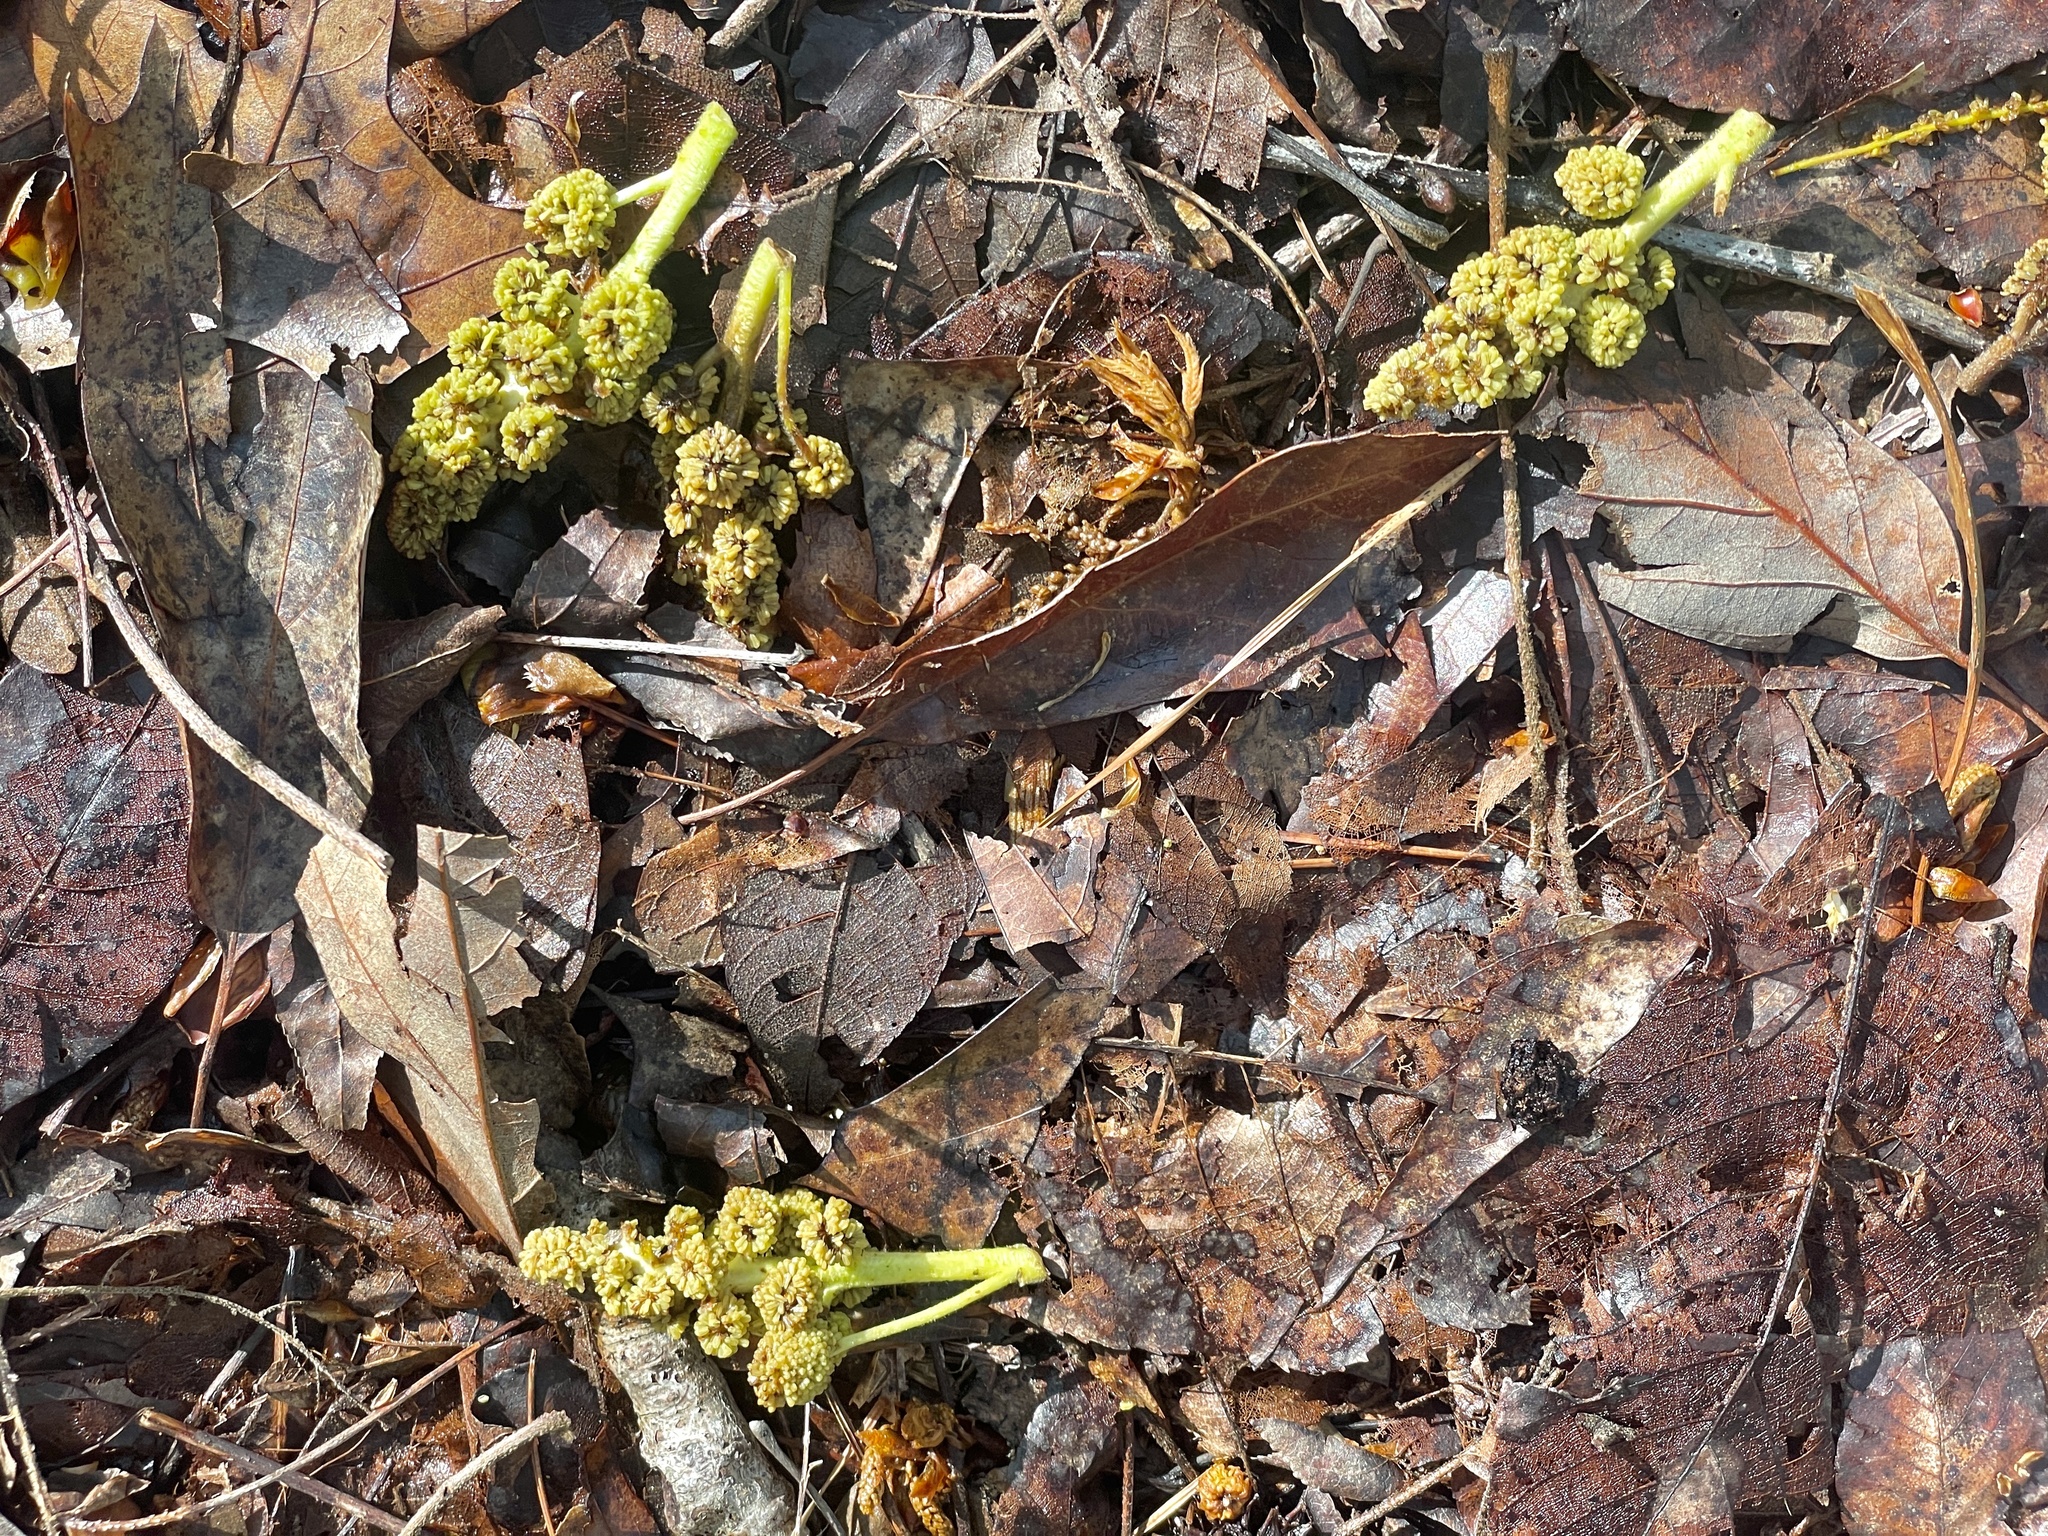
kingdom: Plantae
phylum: Tracheophyta
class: Magnoliopsida
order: Saxifragales
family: Altingiaceae
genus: Liquidambar
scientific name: Liquidambar styraciflua
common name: Sweet gum
